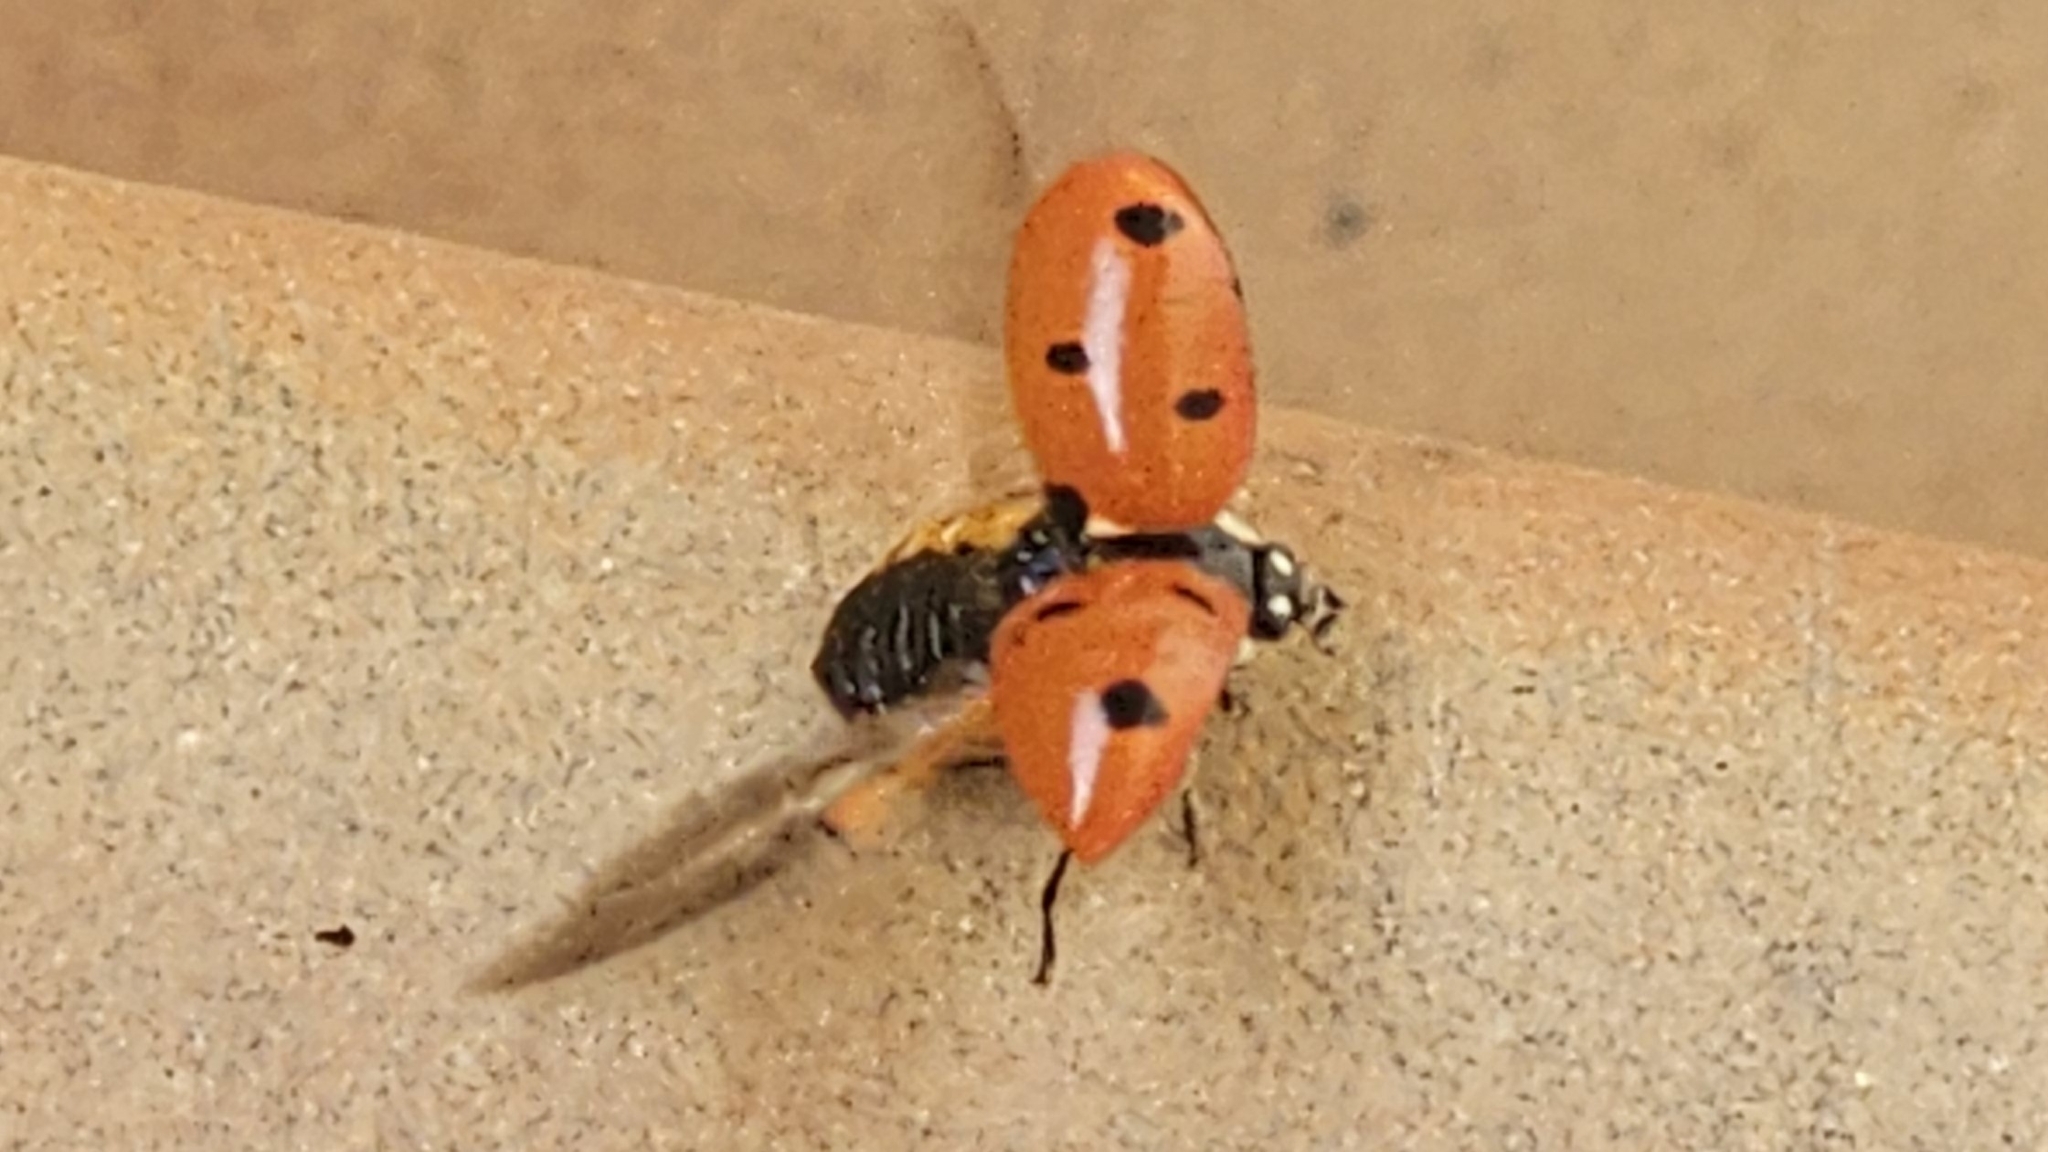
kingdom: Animalia
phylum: Arthropoda
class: Insecta
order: Coleoptera
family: Coccinellidae
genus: Coccinella
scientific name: Coccinella septempunctata
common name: Sevenspotted lady beetle
